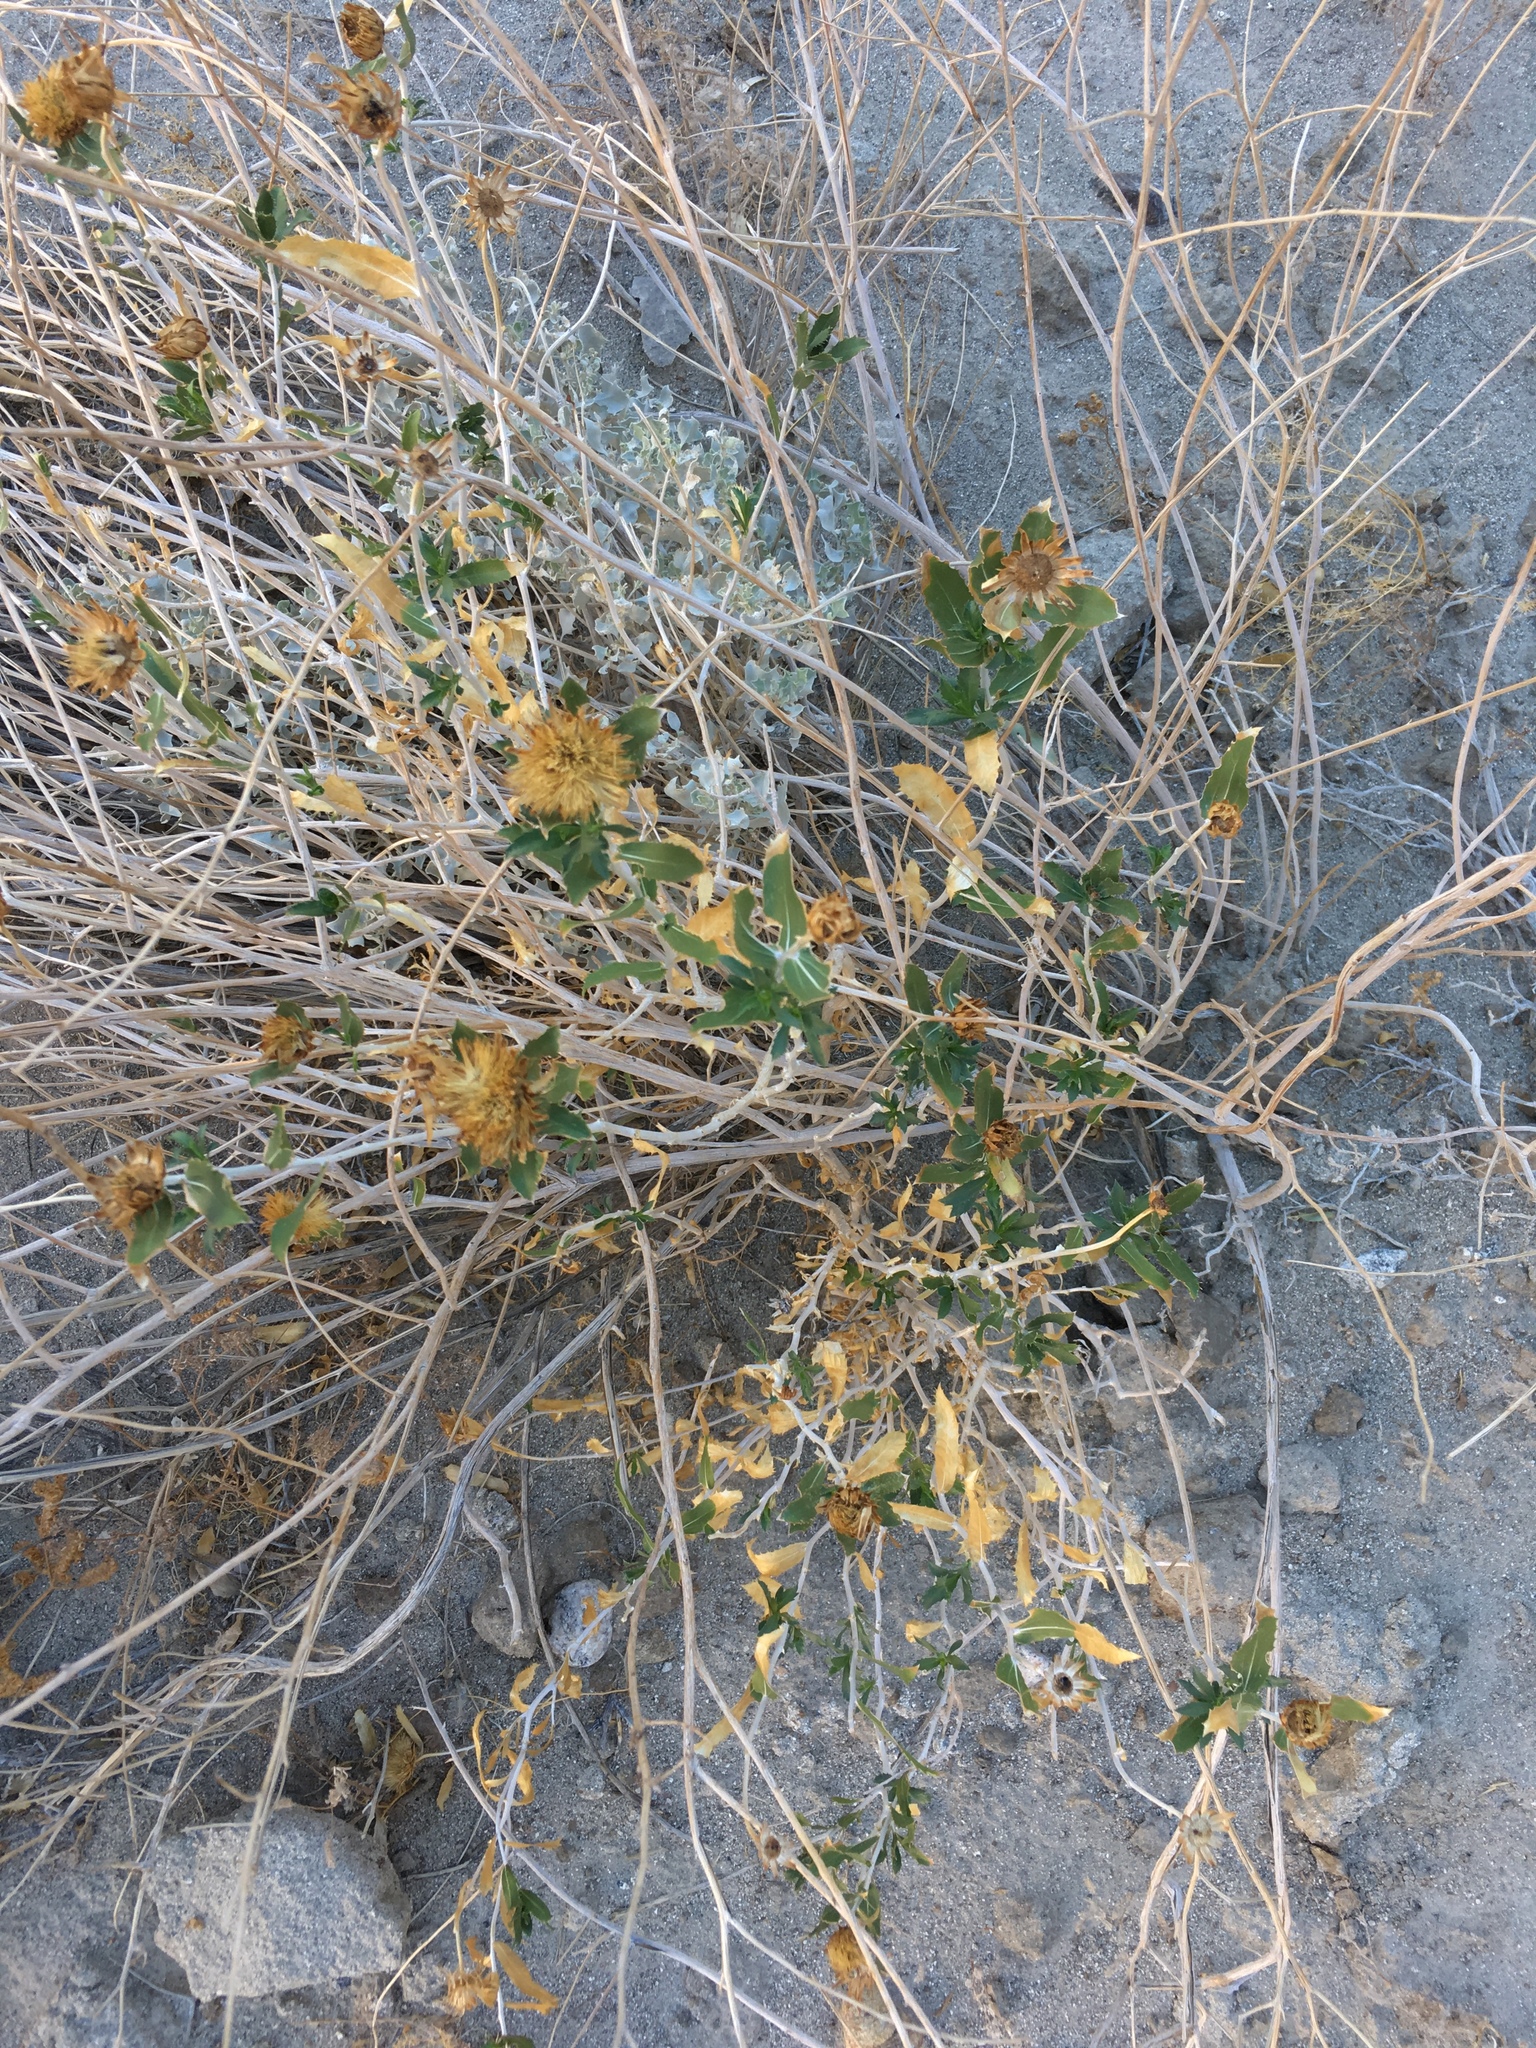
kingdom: Plantae
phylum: Tracheophyta
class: Magnoliopsida
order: Asterales
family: Asteraceae
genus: Xylorhiza
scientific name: Xylorhiza orcuttii
